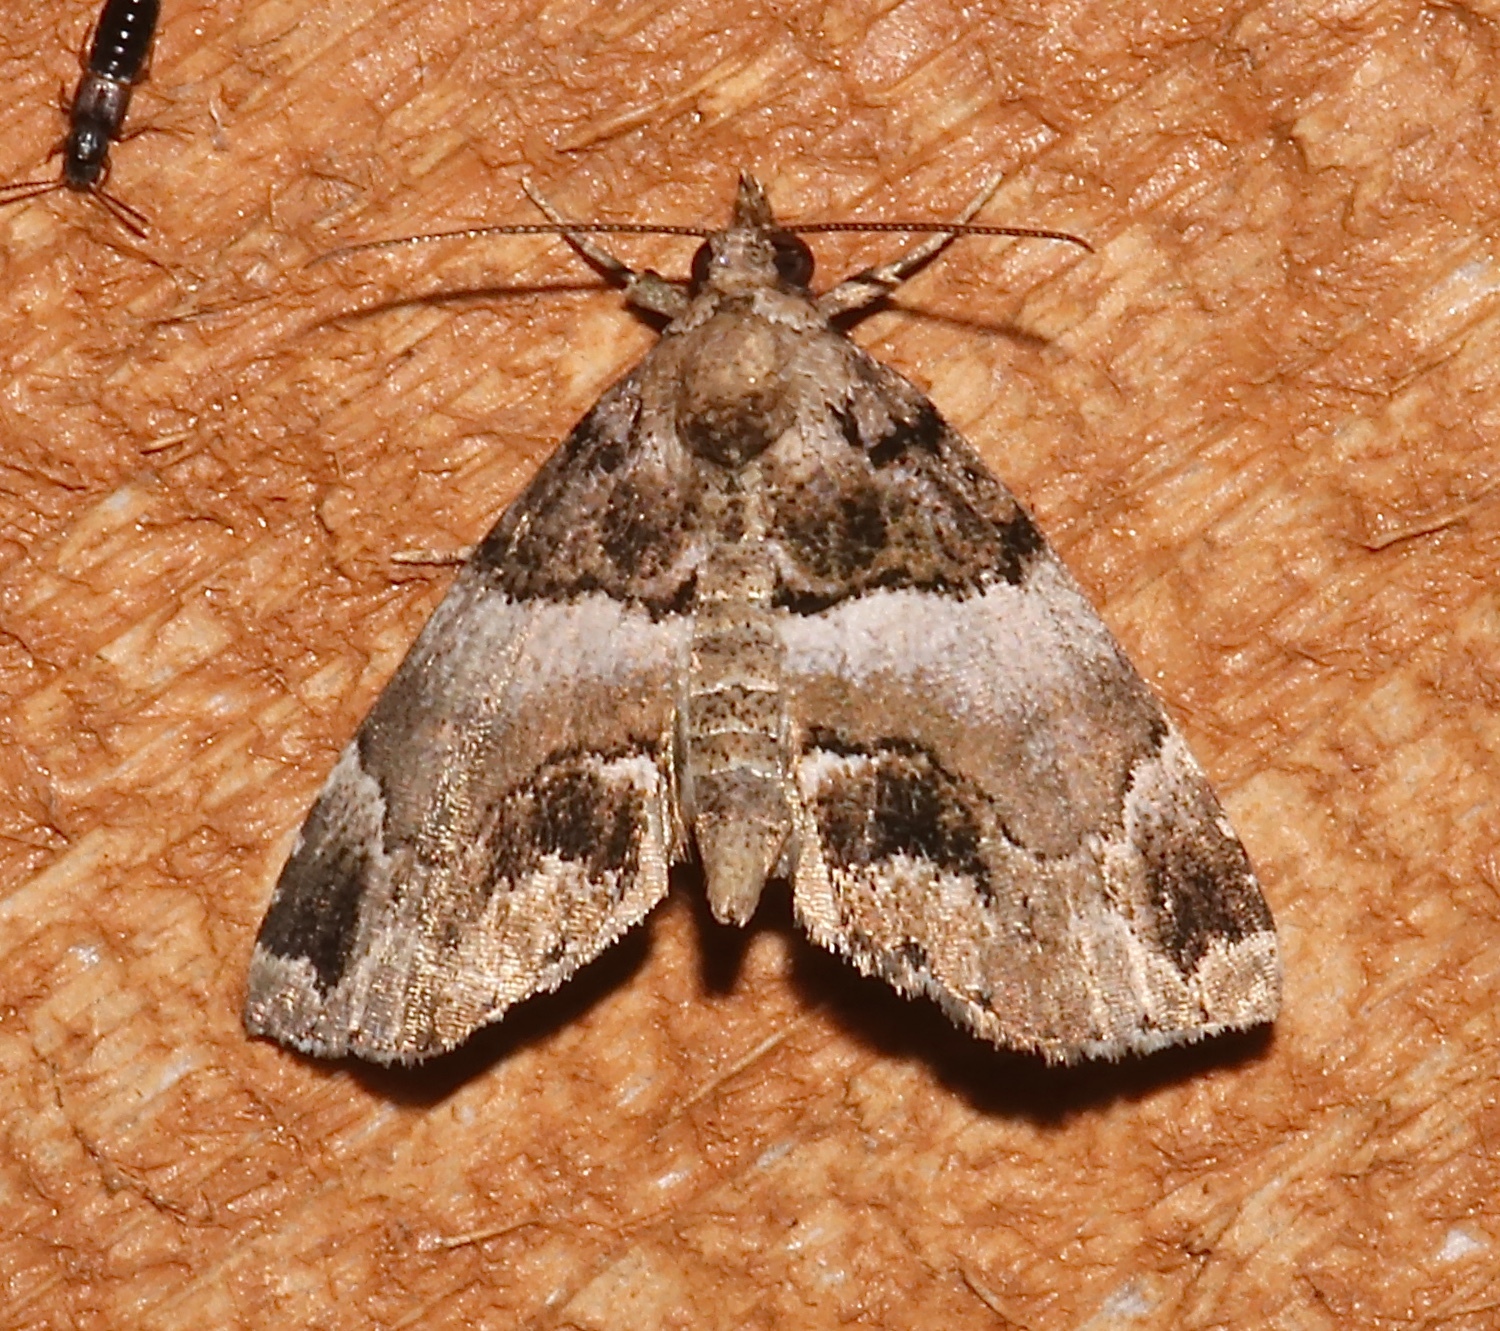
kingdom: Animalia
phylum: Arthropoda
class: Insecta
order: Lepidoptera
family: Erebidae
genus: Cutina
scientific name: Cutina distincta
